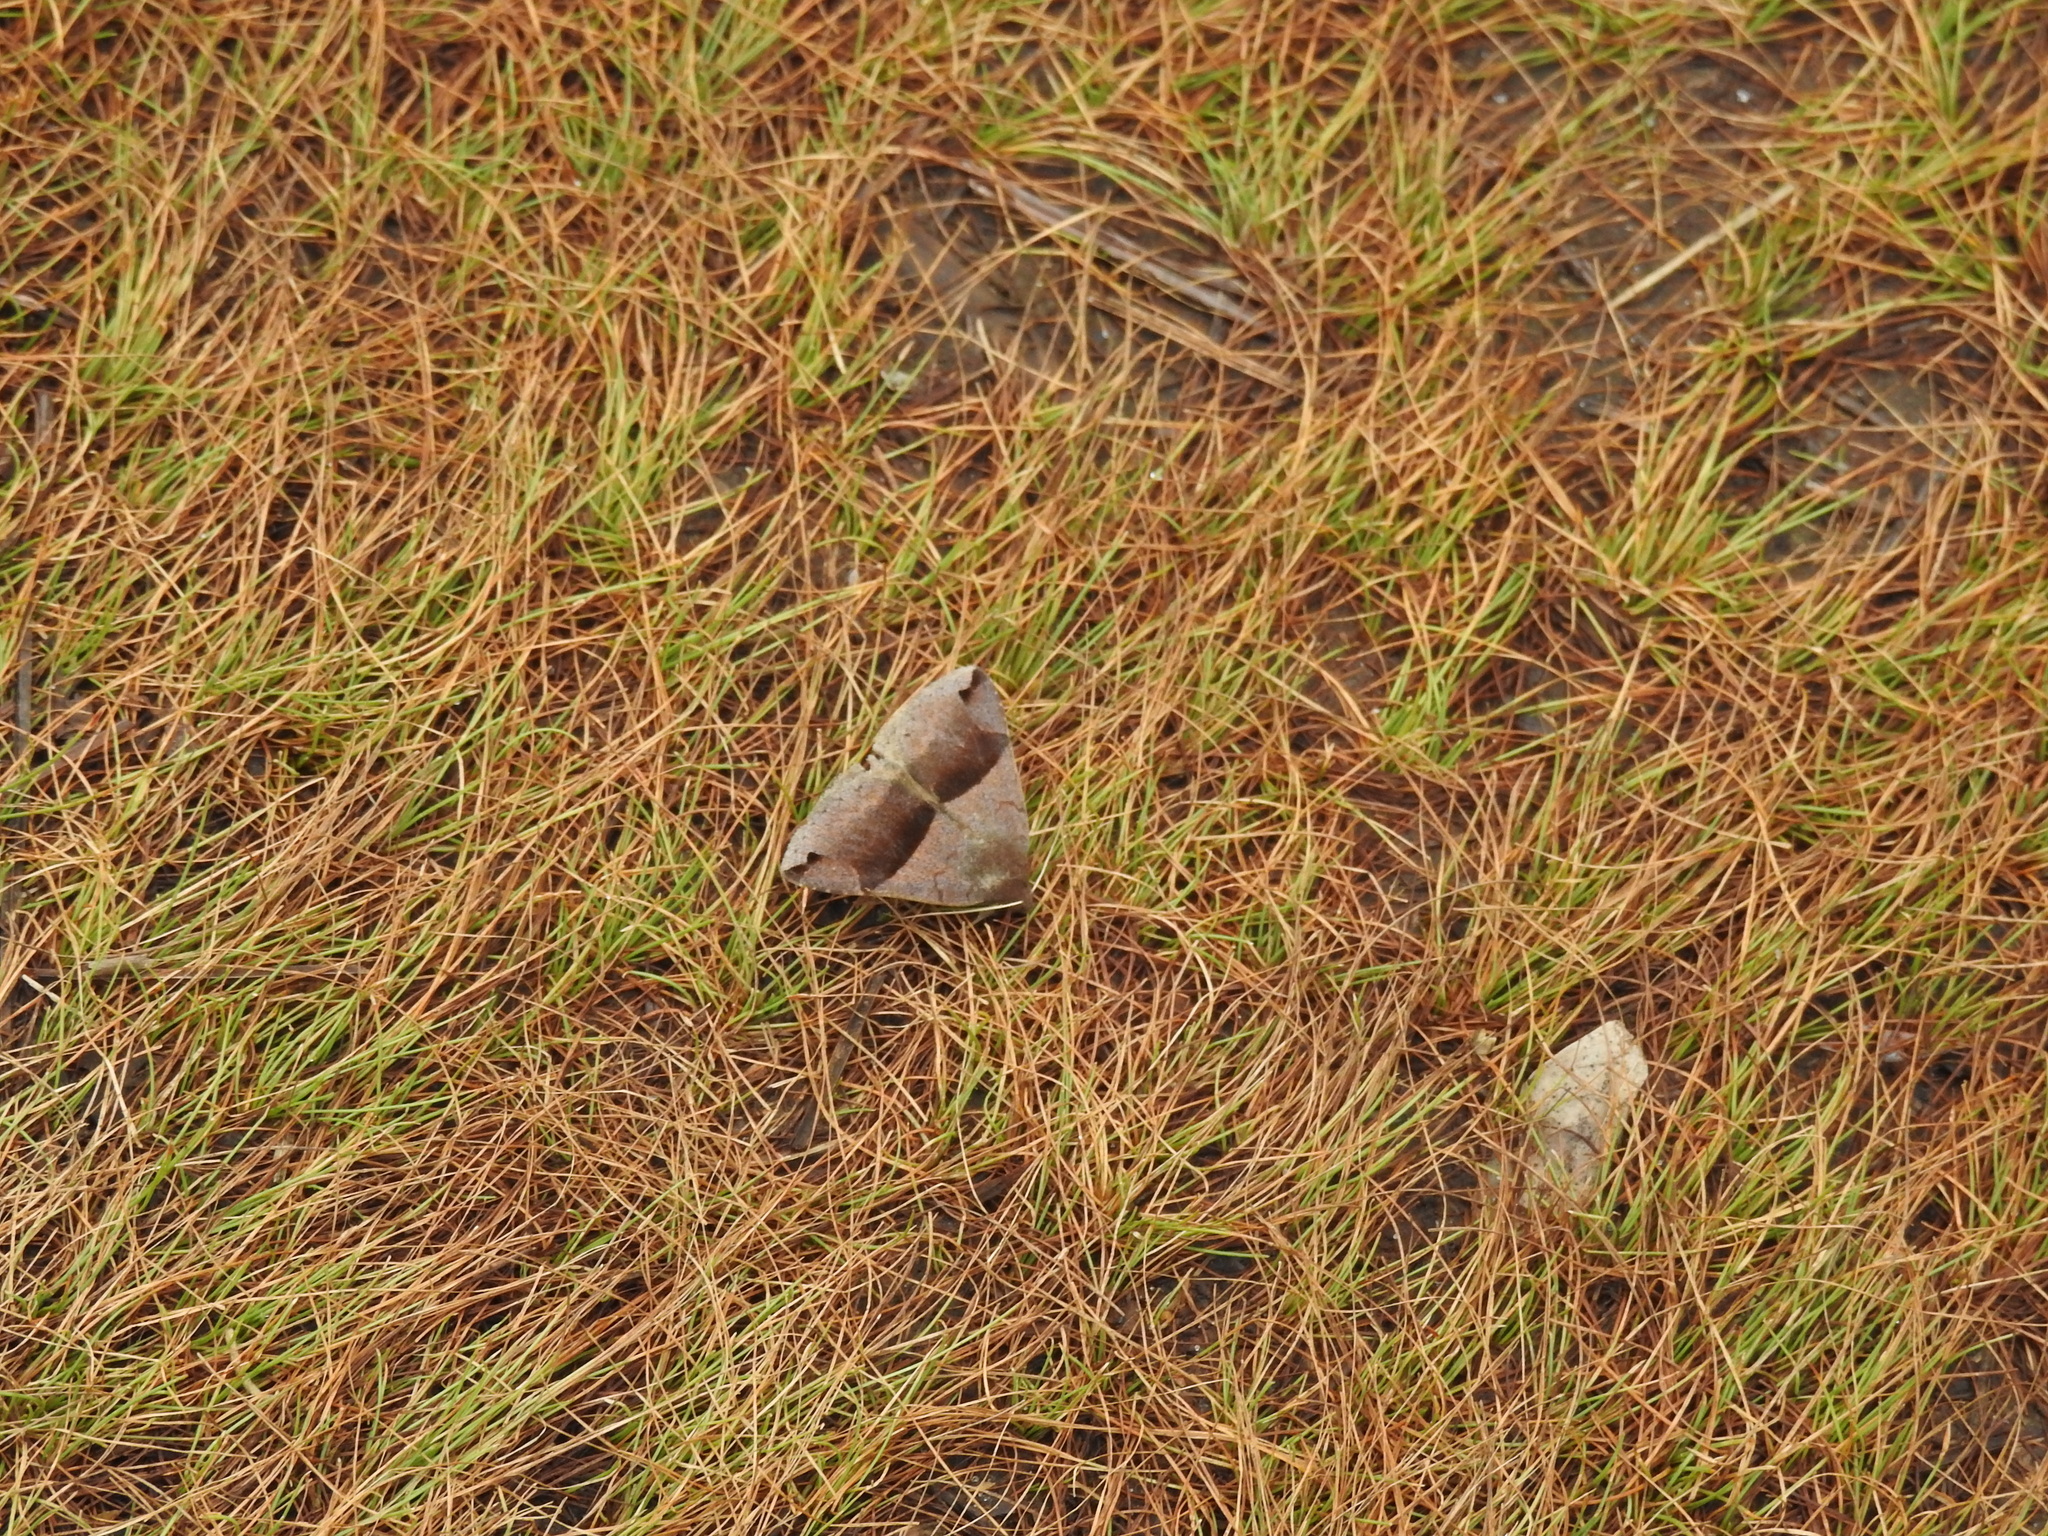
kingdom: Animalia
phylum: Arthropoda
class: Insecta
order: Lepidoptera
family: Erebidae
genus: Gondysia
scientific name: Gondysia similis
